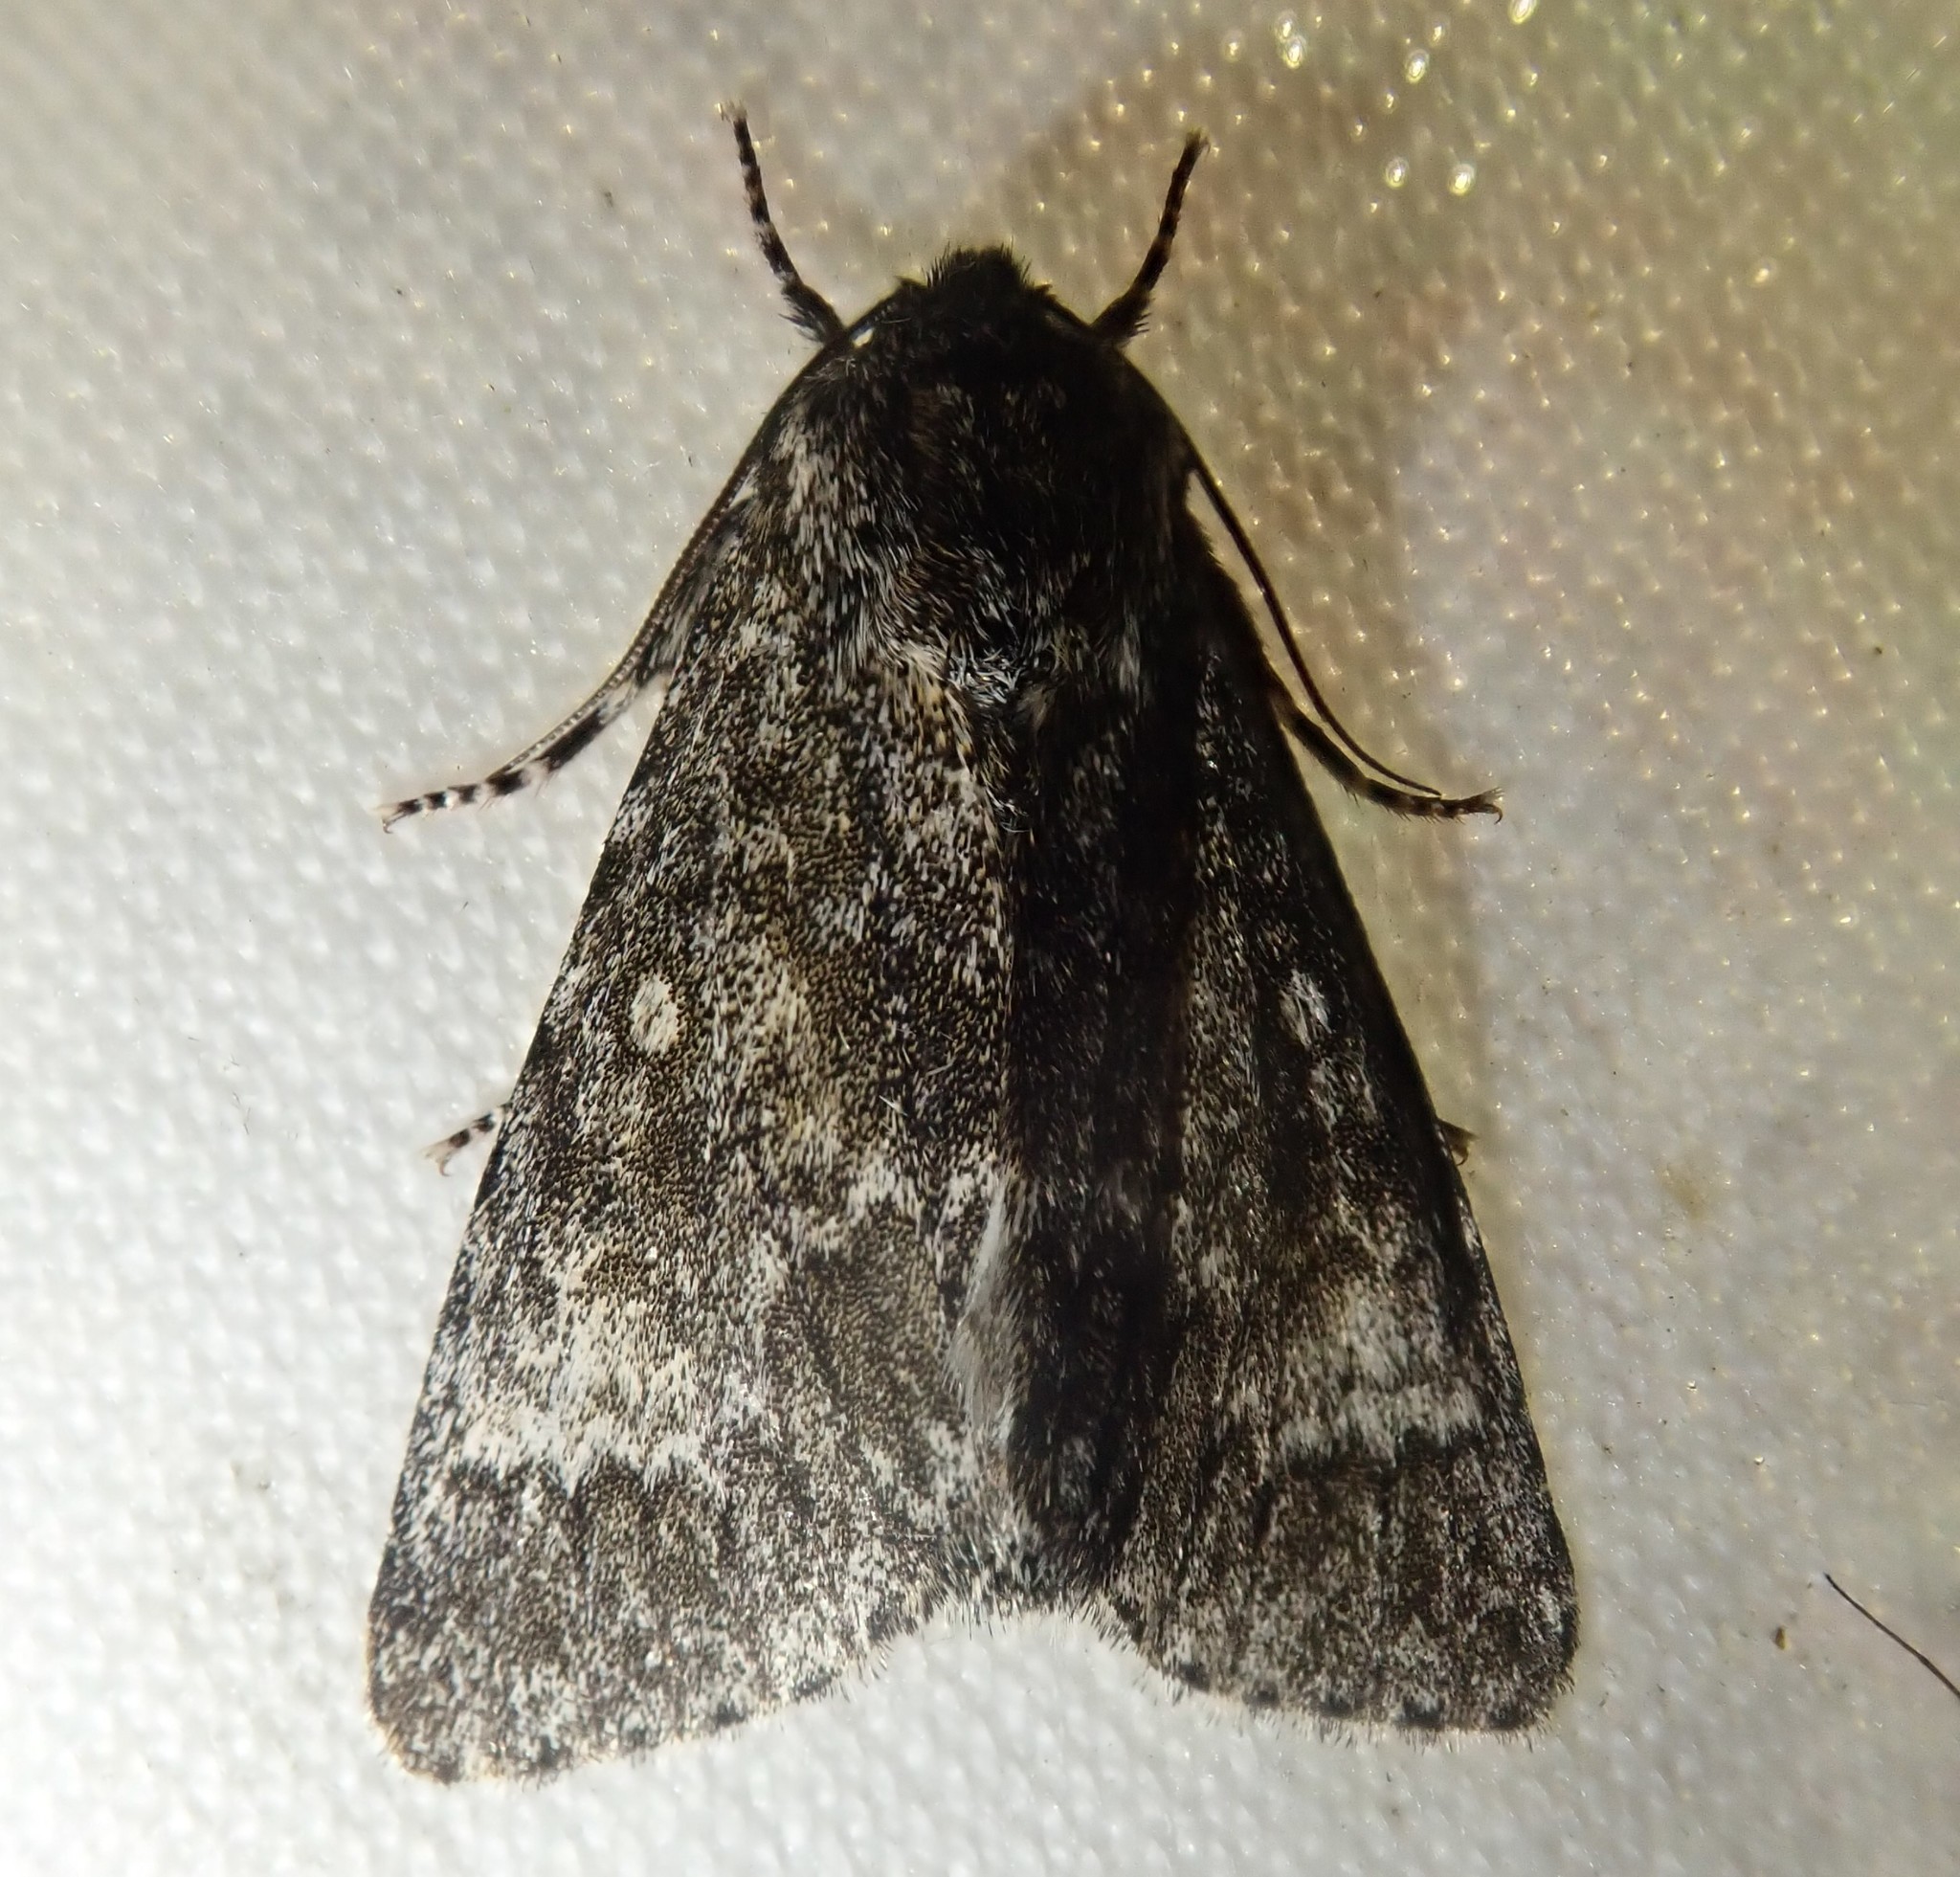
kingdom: Animalia
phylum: Arthropoda
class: Insecta
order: Lepidoptera
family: Noctuidae
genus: Acronicta
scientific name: Acronicta megacephala
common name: Poplar grey
